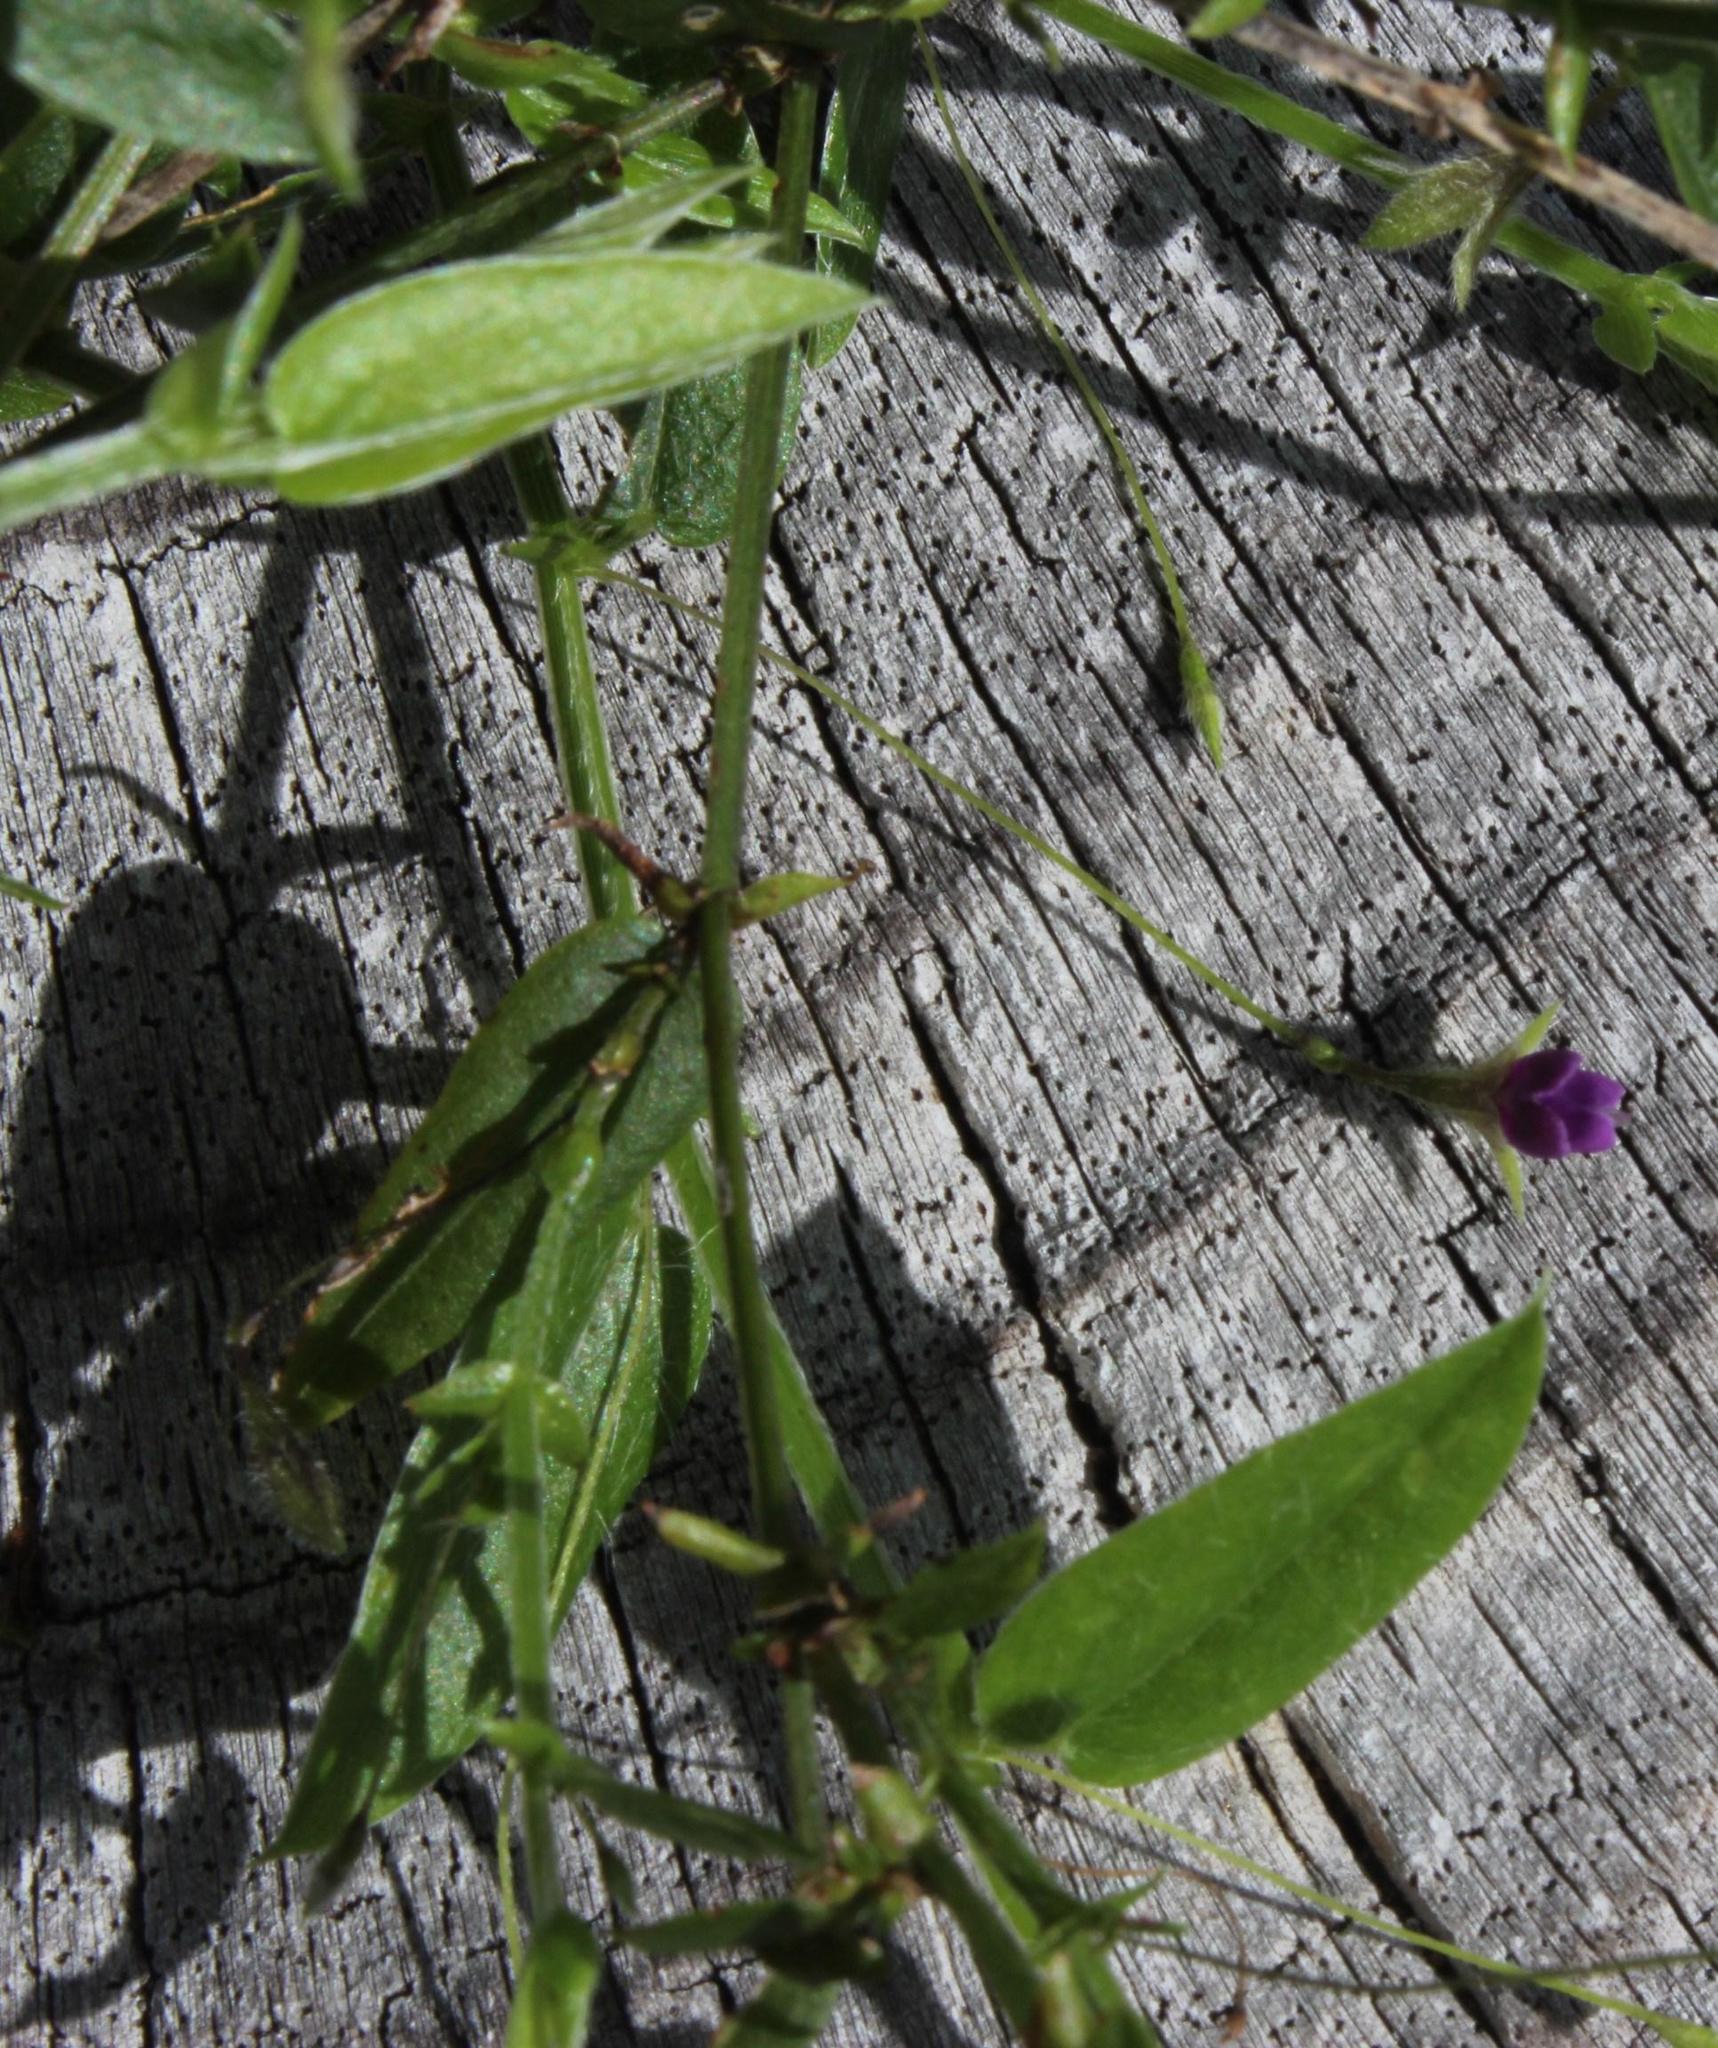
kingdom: Plantae
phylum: Tracheophyta
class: Magnoliopsida
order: Fabales
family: Fabaceae
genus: Psoralea
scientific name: Psoralea monophylla
